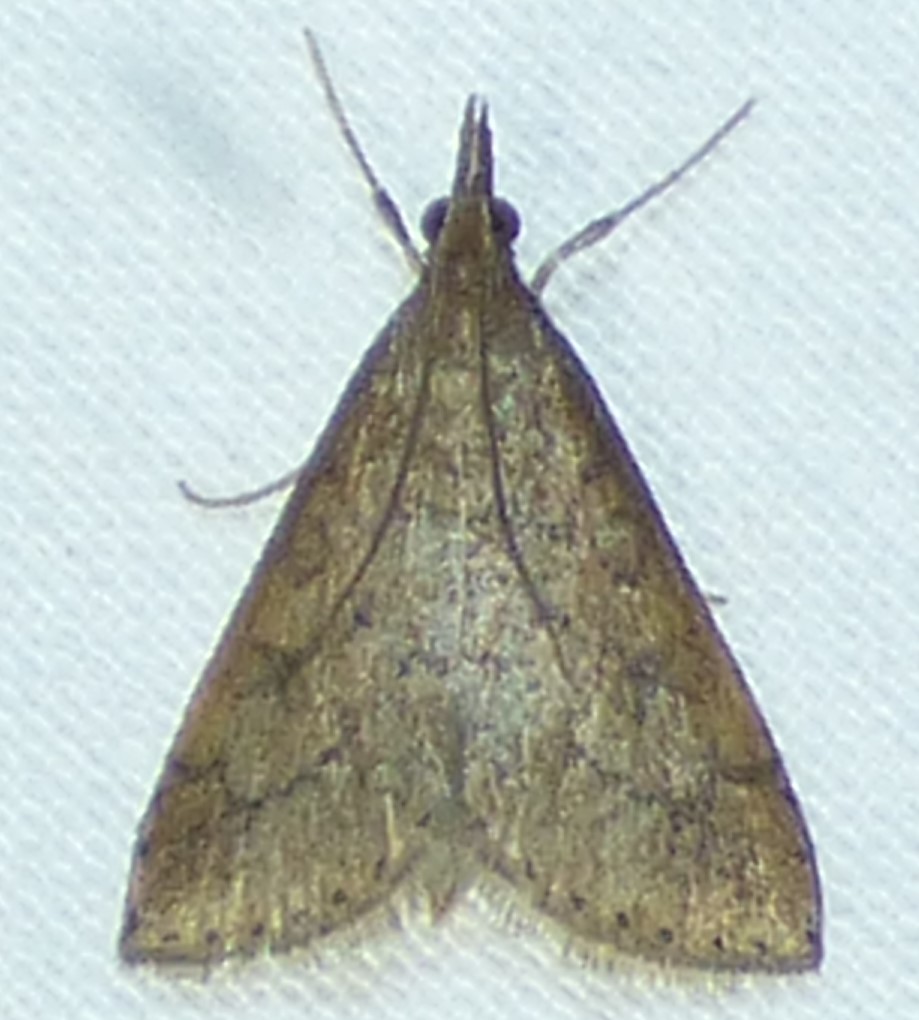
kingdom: Animalia
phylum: Arthropoda
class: Insecta
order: Lepidoptera
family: Crambidae
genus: Udea
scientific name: Udea rubigalis
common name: Celery leaftier moth
